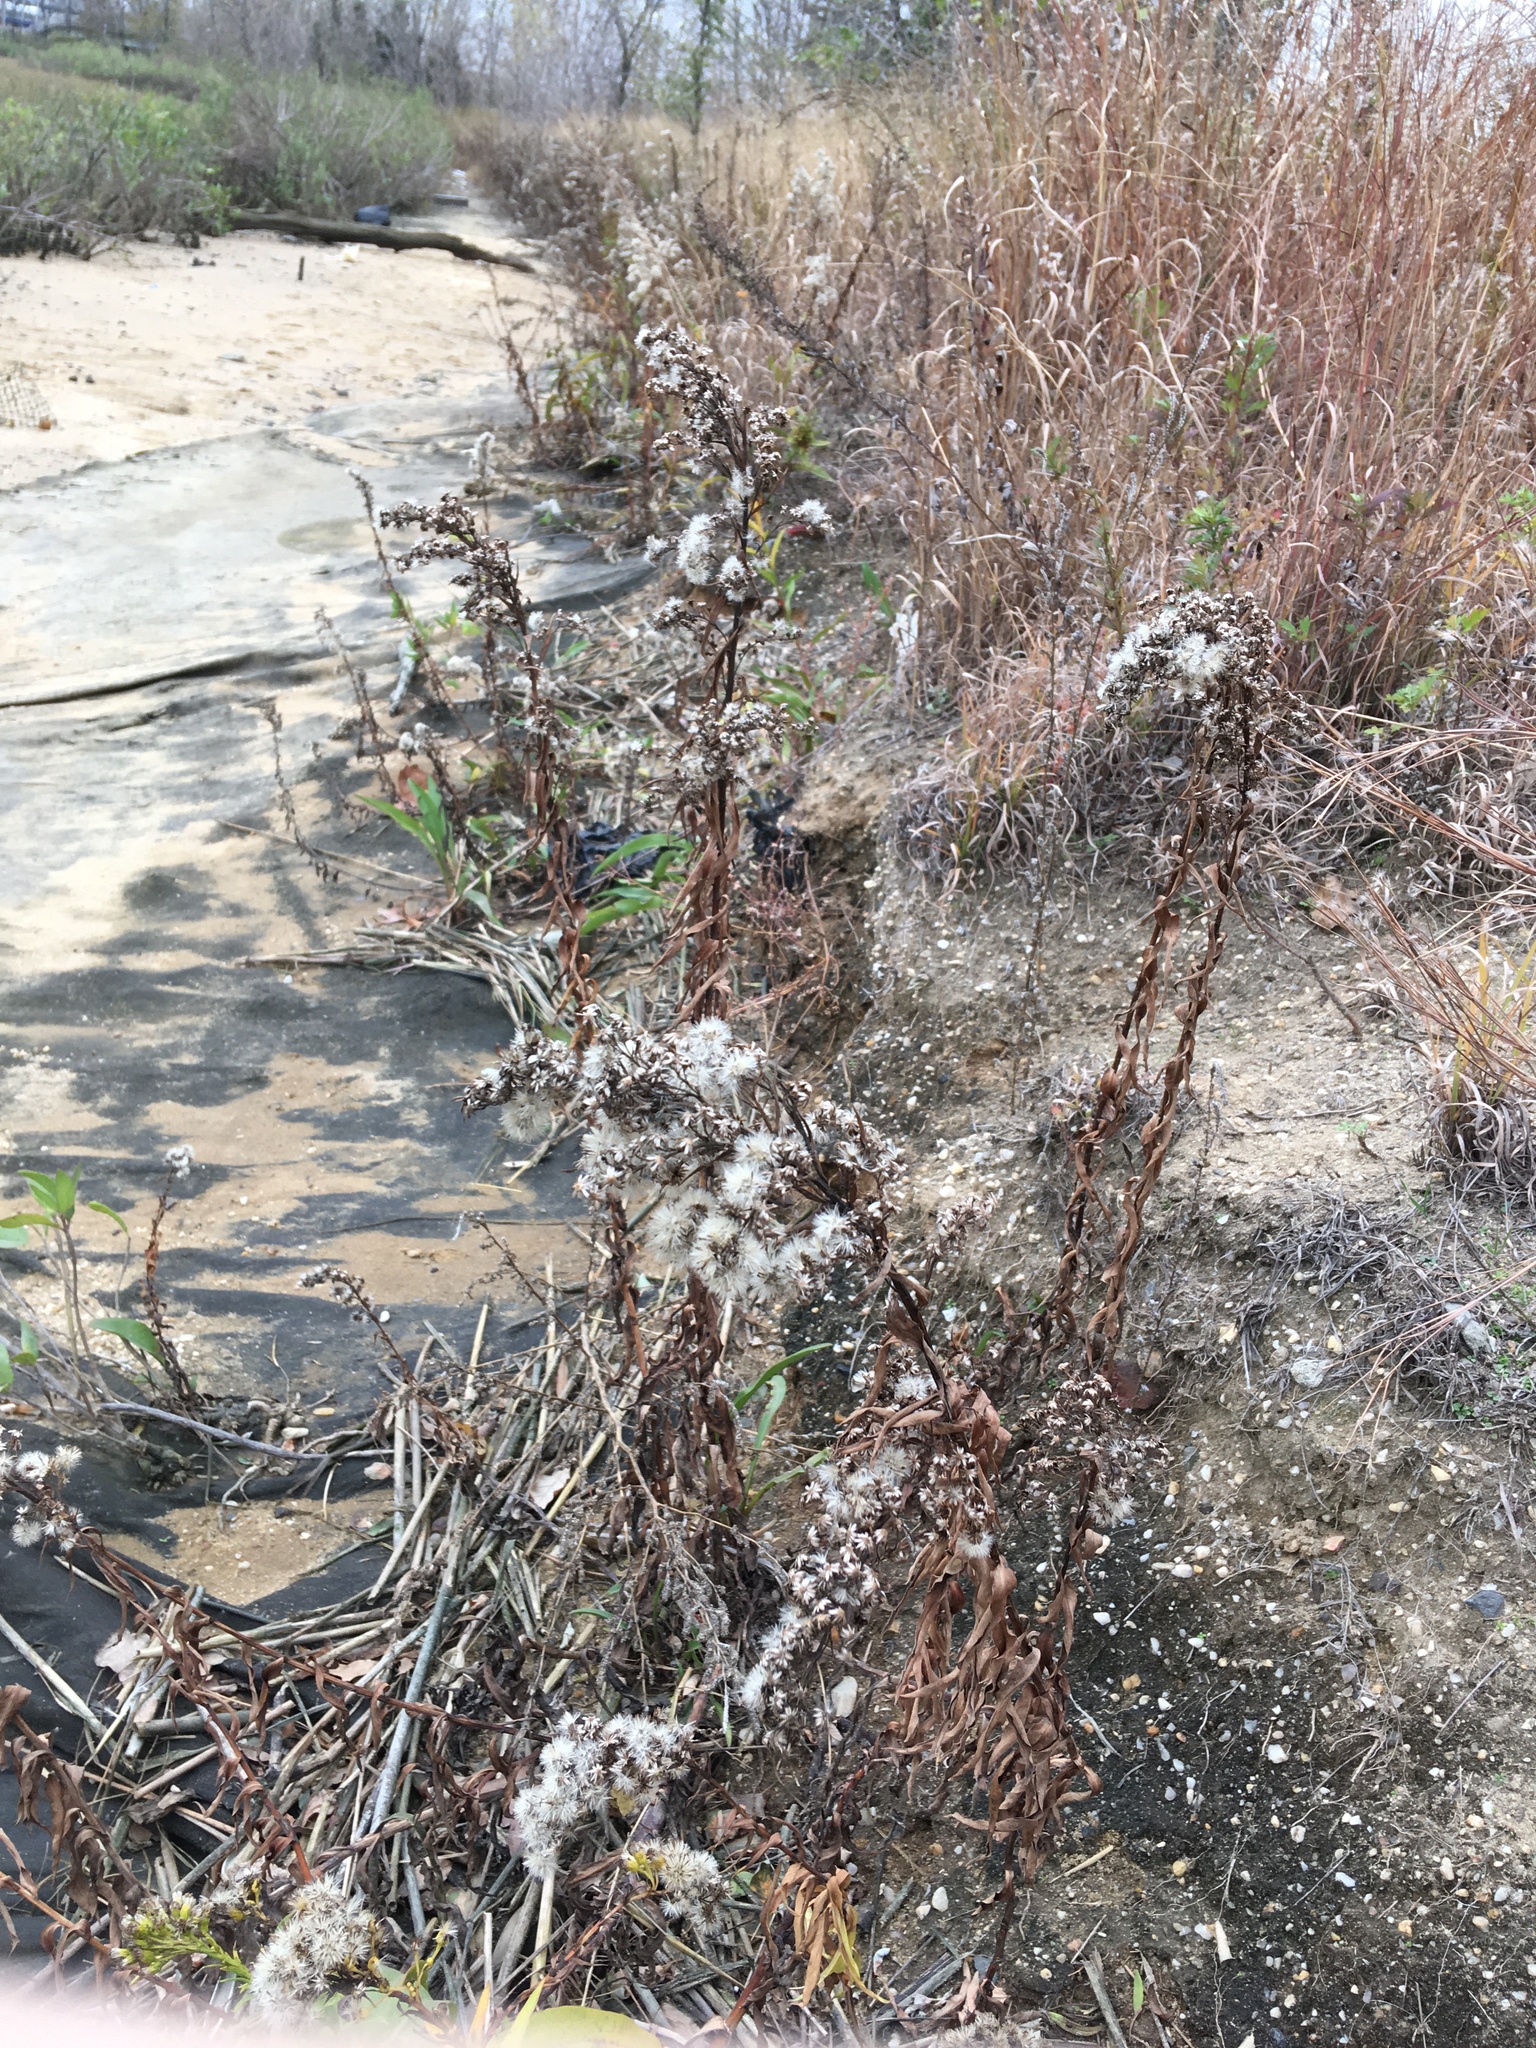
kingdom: Plantae
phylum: Tracheophyta
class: Magnoliopsida
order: Asterales
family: Asteraceae
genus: Solidago
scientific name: Solidago sempervirens
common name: Salt-marsh goldenrod
